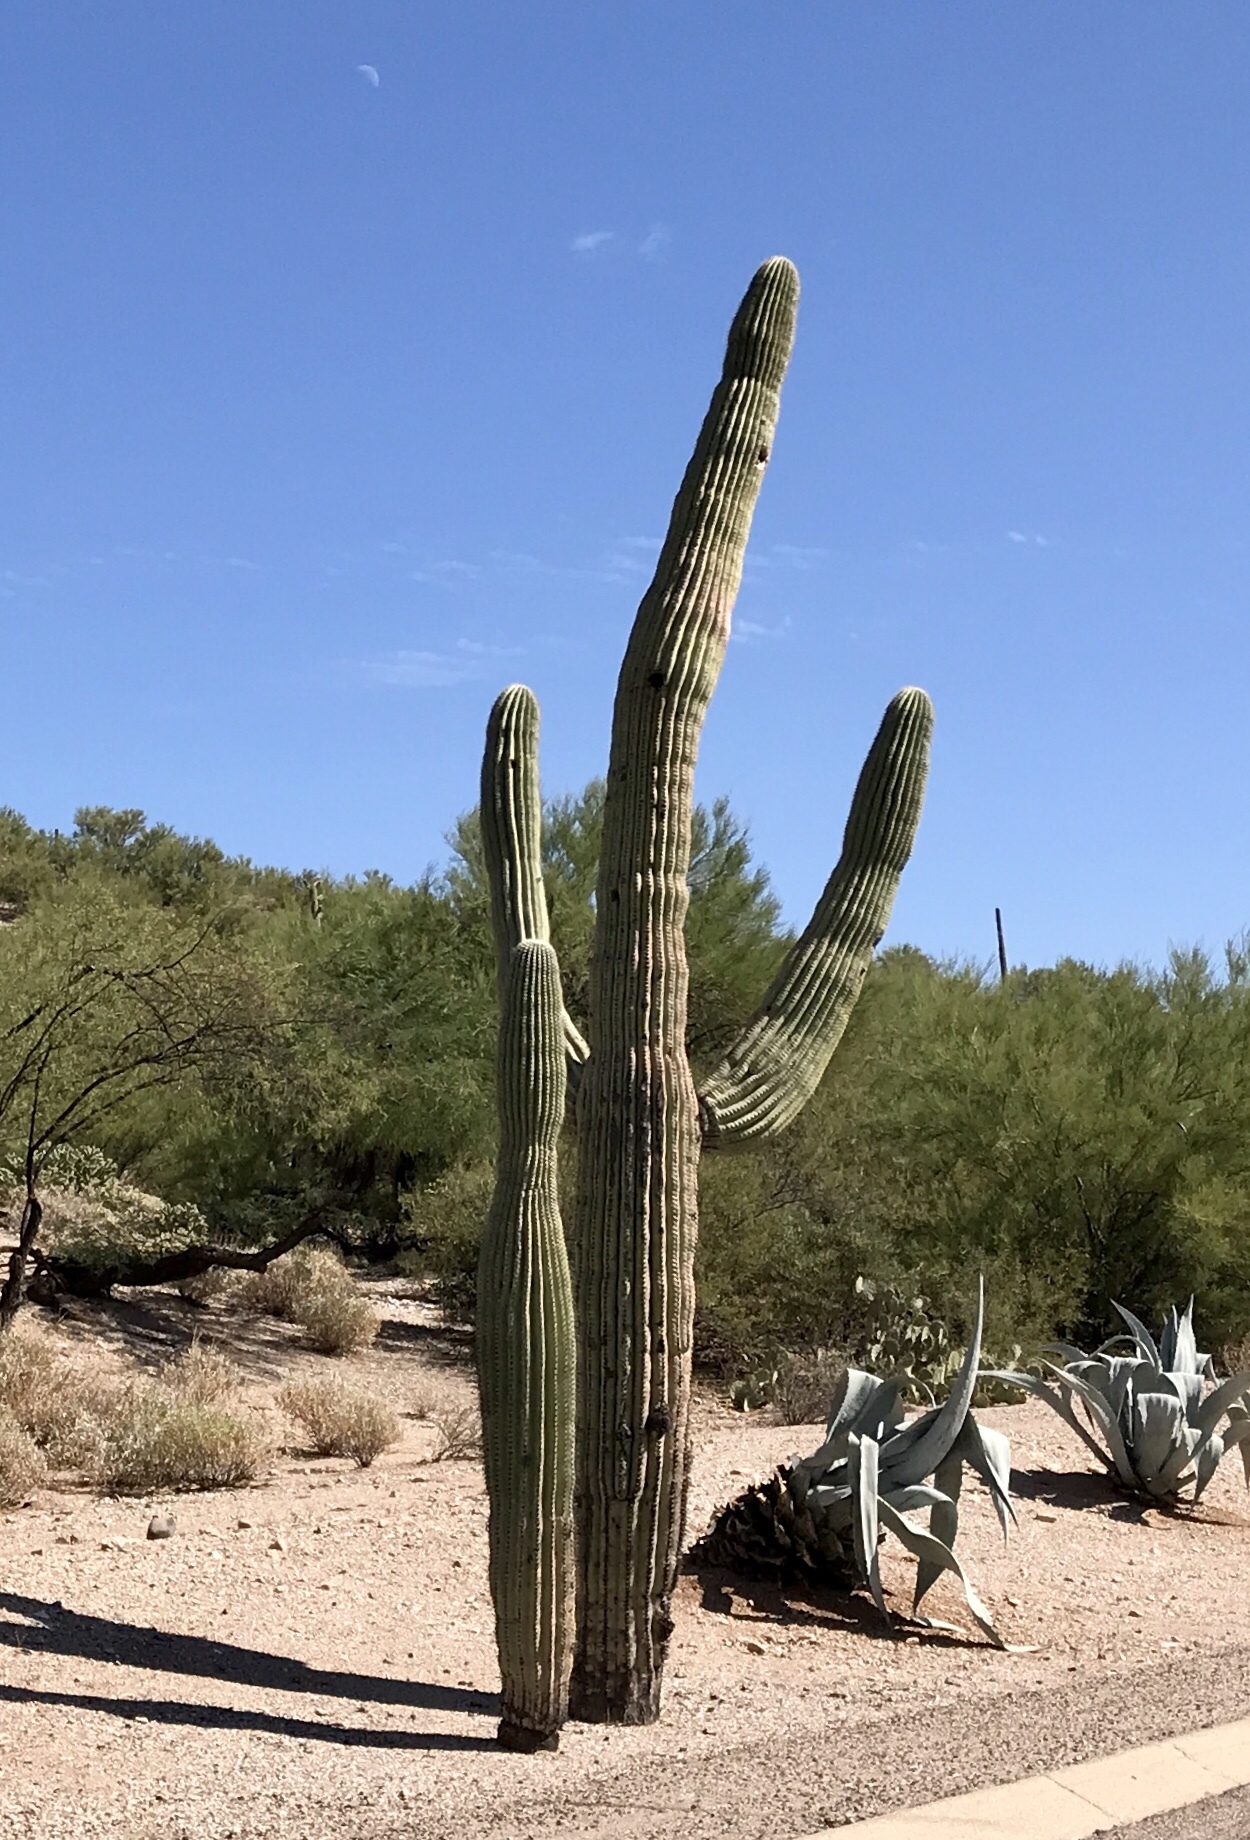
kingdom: Plantae
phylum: Tracheophyta
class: Magnoliopsida
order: Caryophyllales
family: Cactaceae
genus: Carnegiea
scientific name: Carnegiea gigantea
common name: Saguaro
